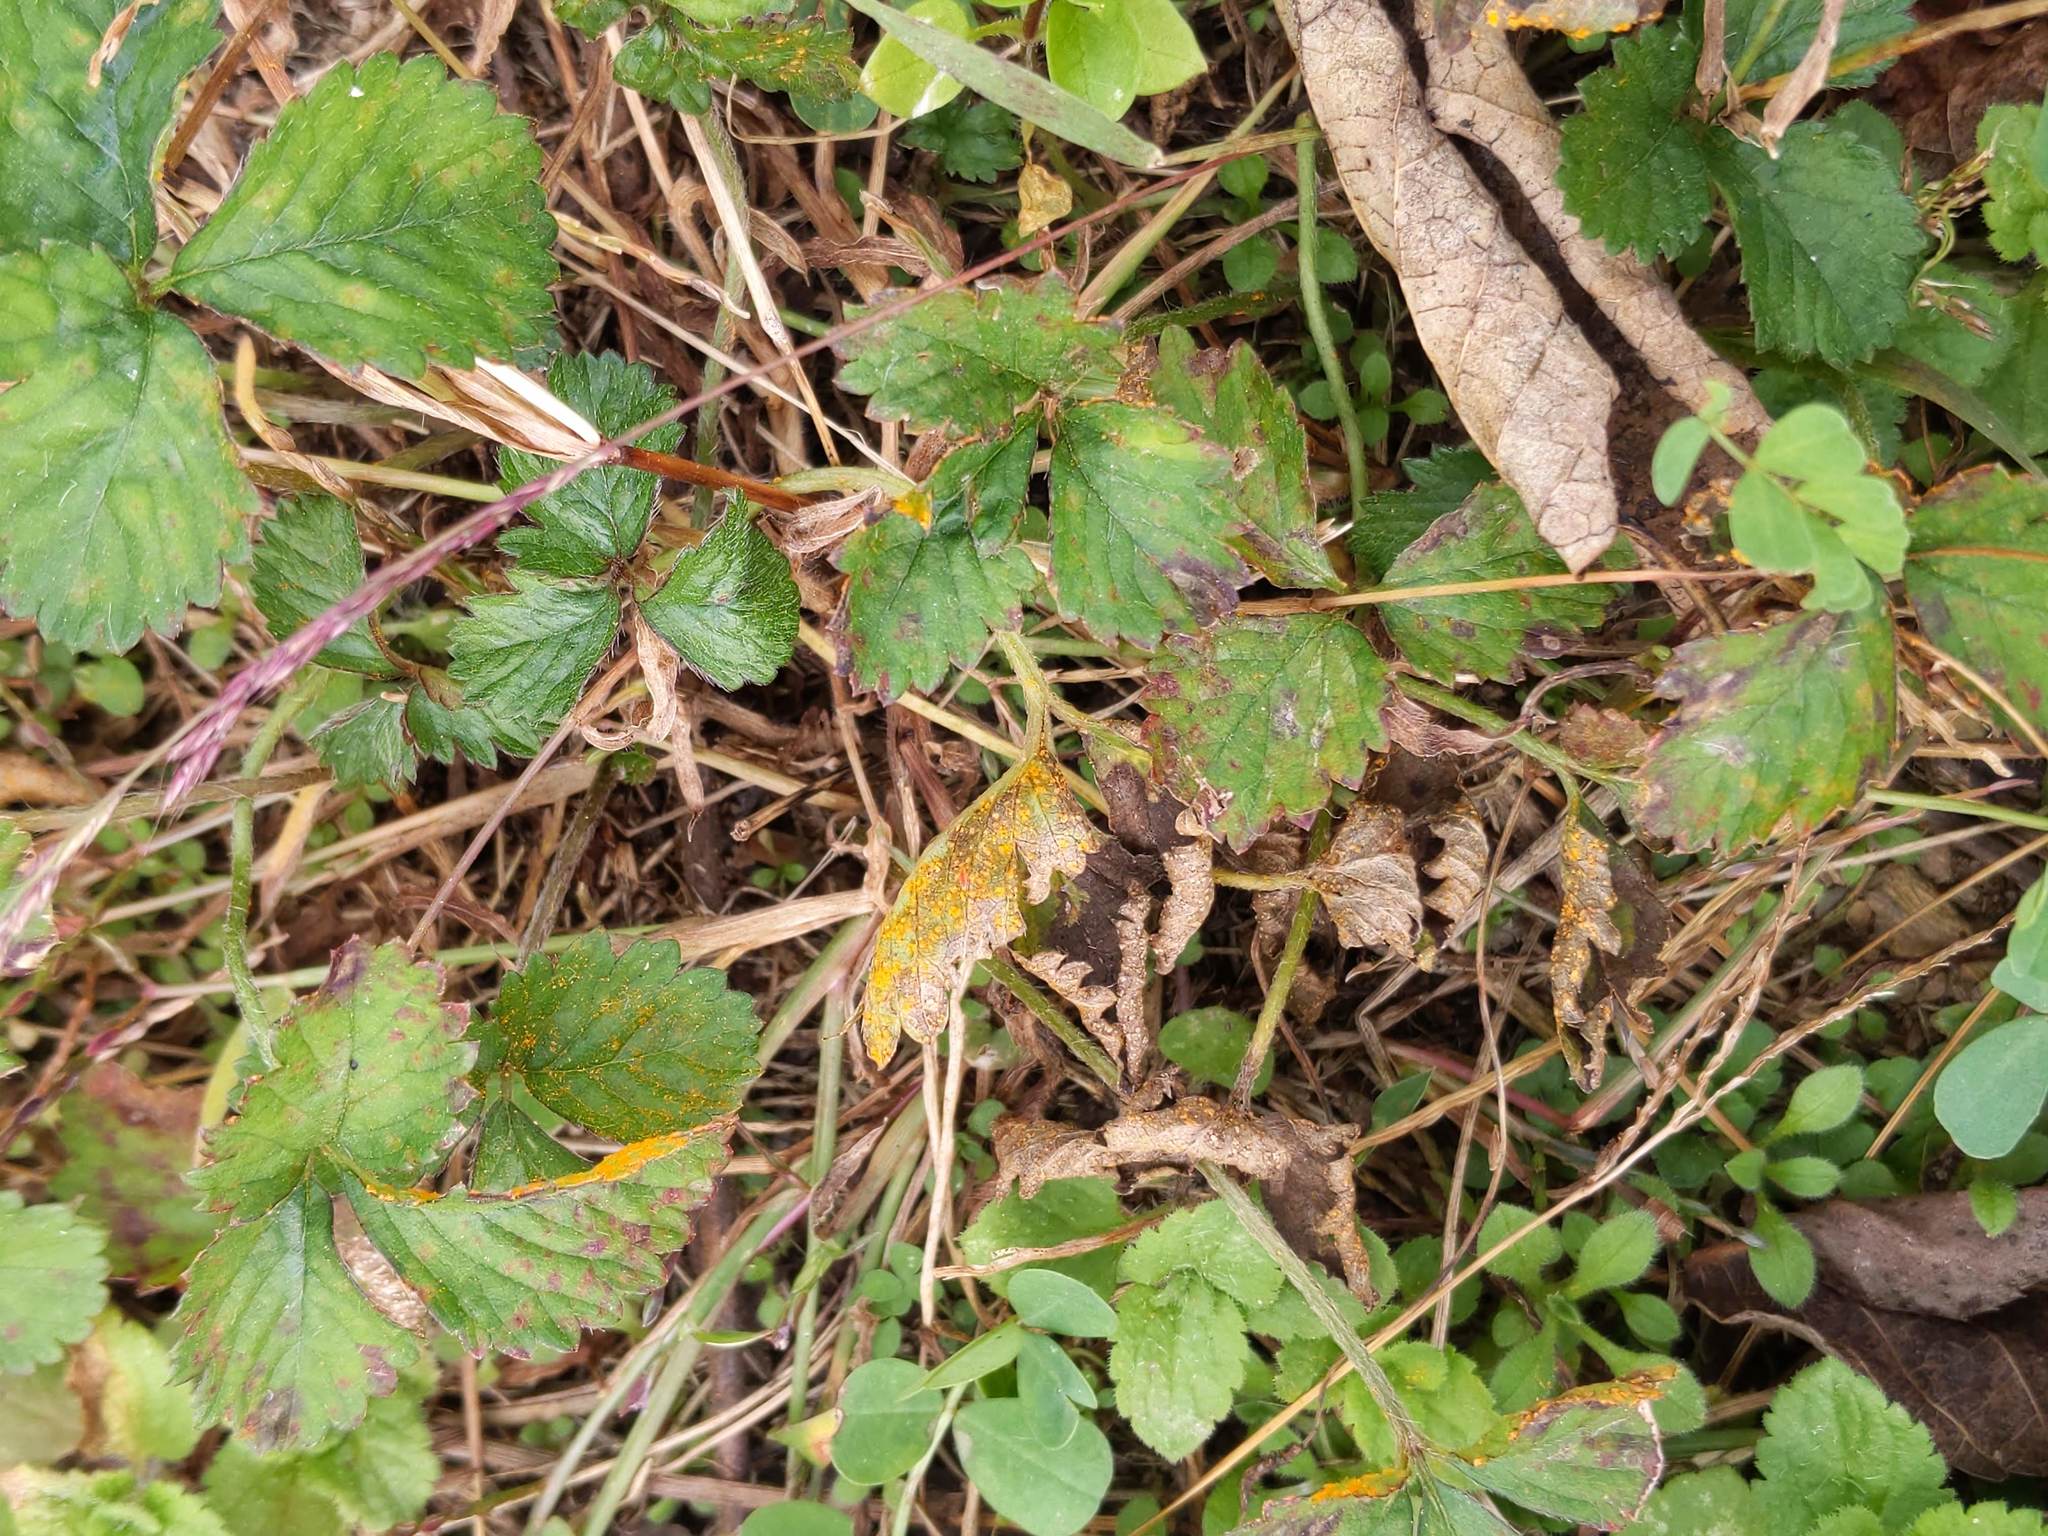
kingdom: Plantae
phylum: Tracheophyta
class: Magnoliopsida
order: Rosales
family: Rosaceae
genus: Potentilla
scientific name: Potentilla indica
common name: Yellow-flowered strawberry
